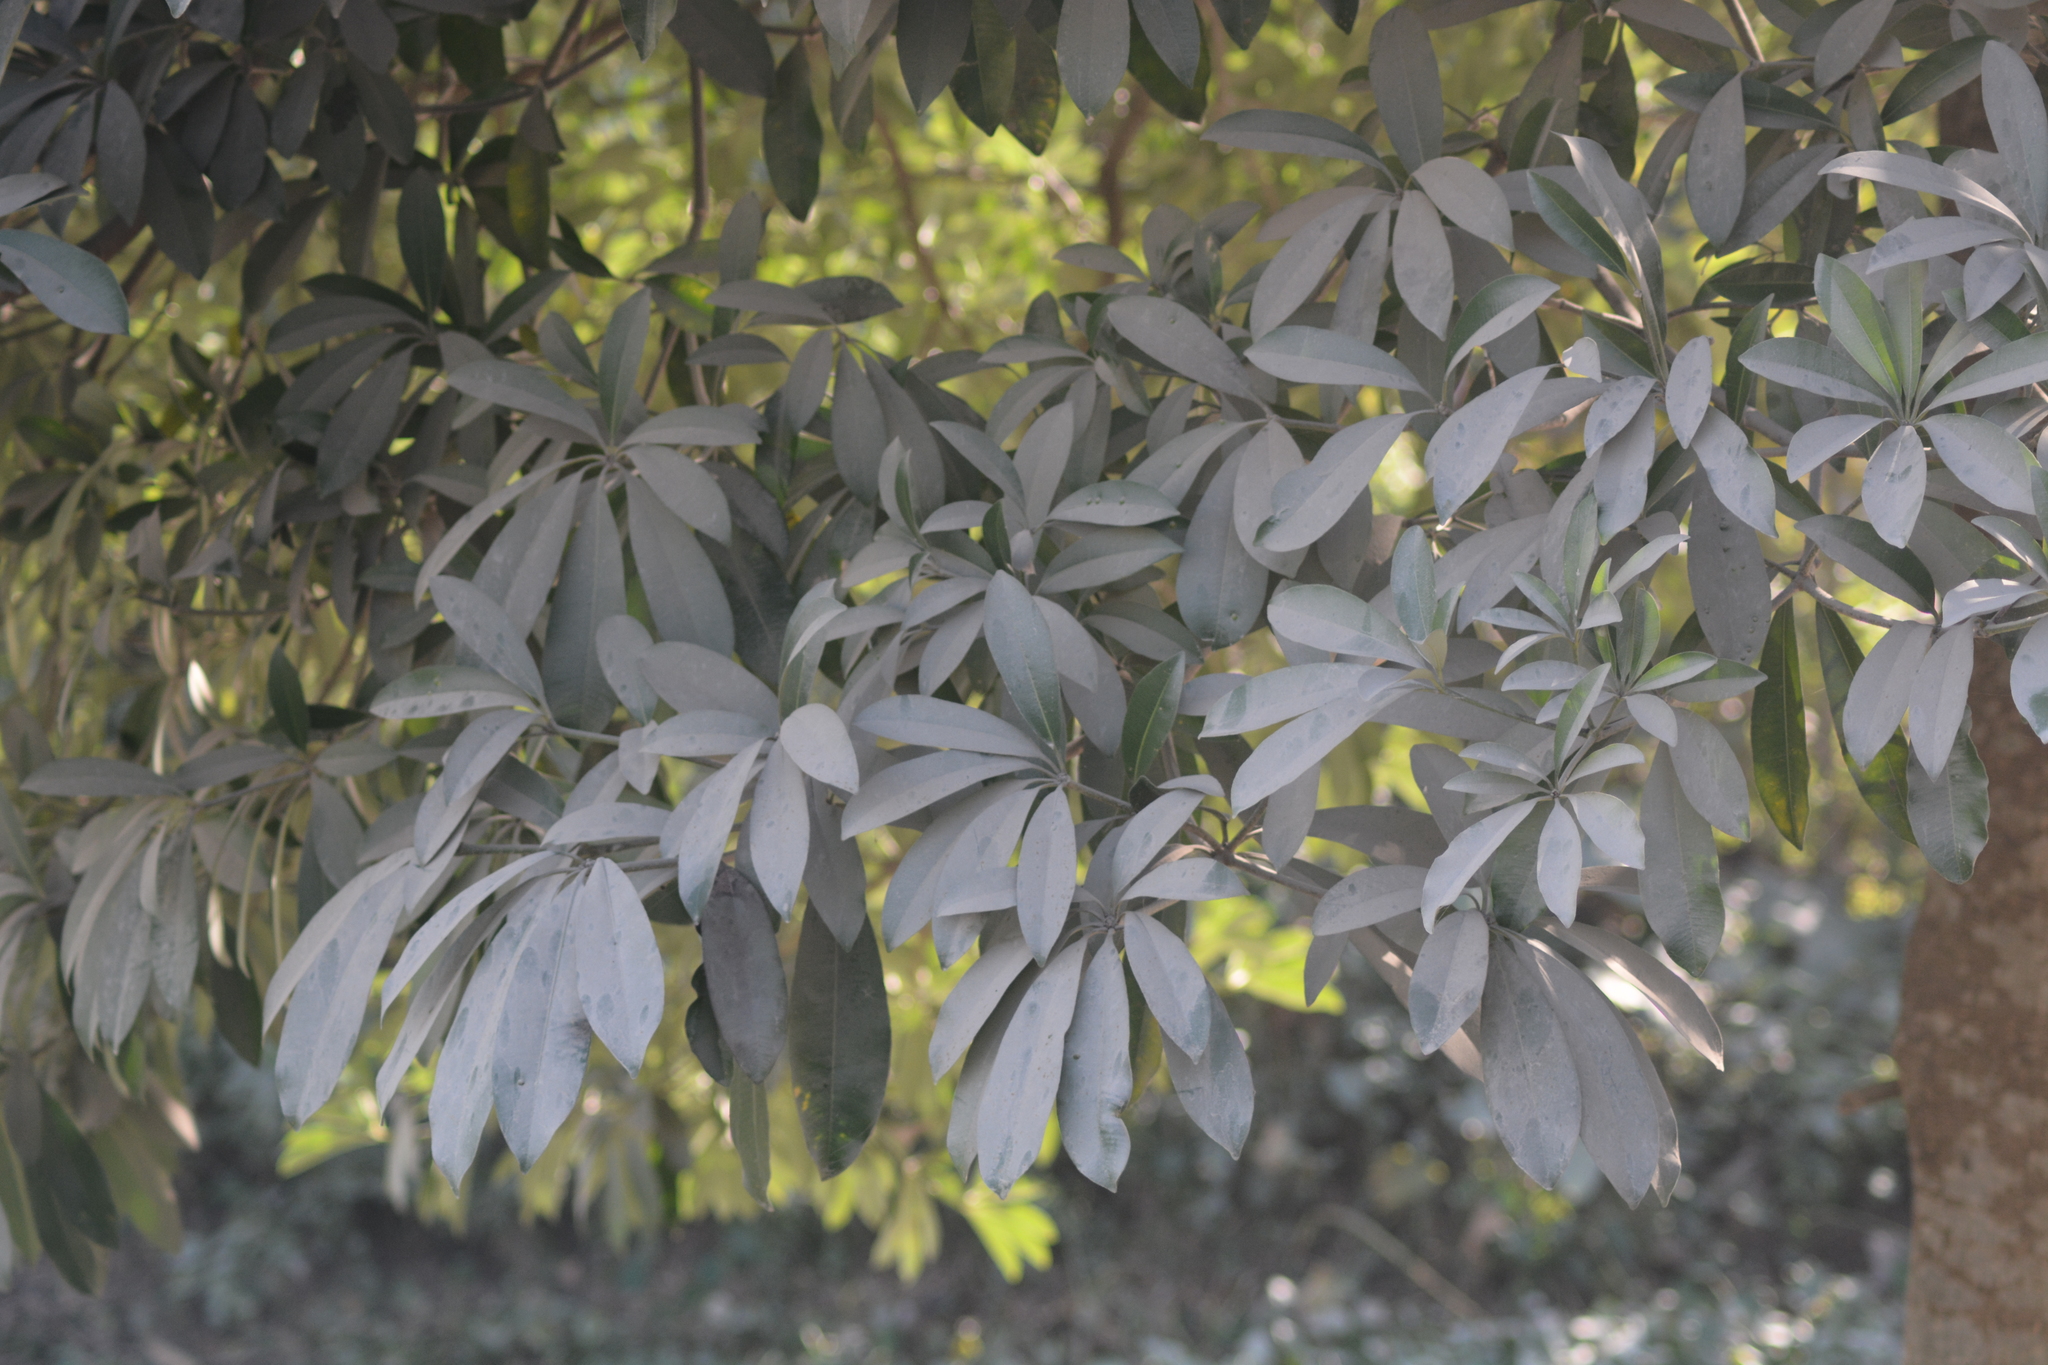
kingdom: Plantae
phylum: Tracheophyta
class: Magnoliopsida
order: Gentianales
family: Apocynaceae
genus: Alstonia
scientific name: Alstonia scholaris
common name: White cheesewood
